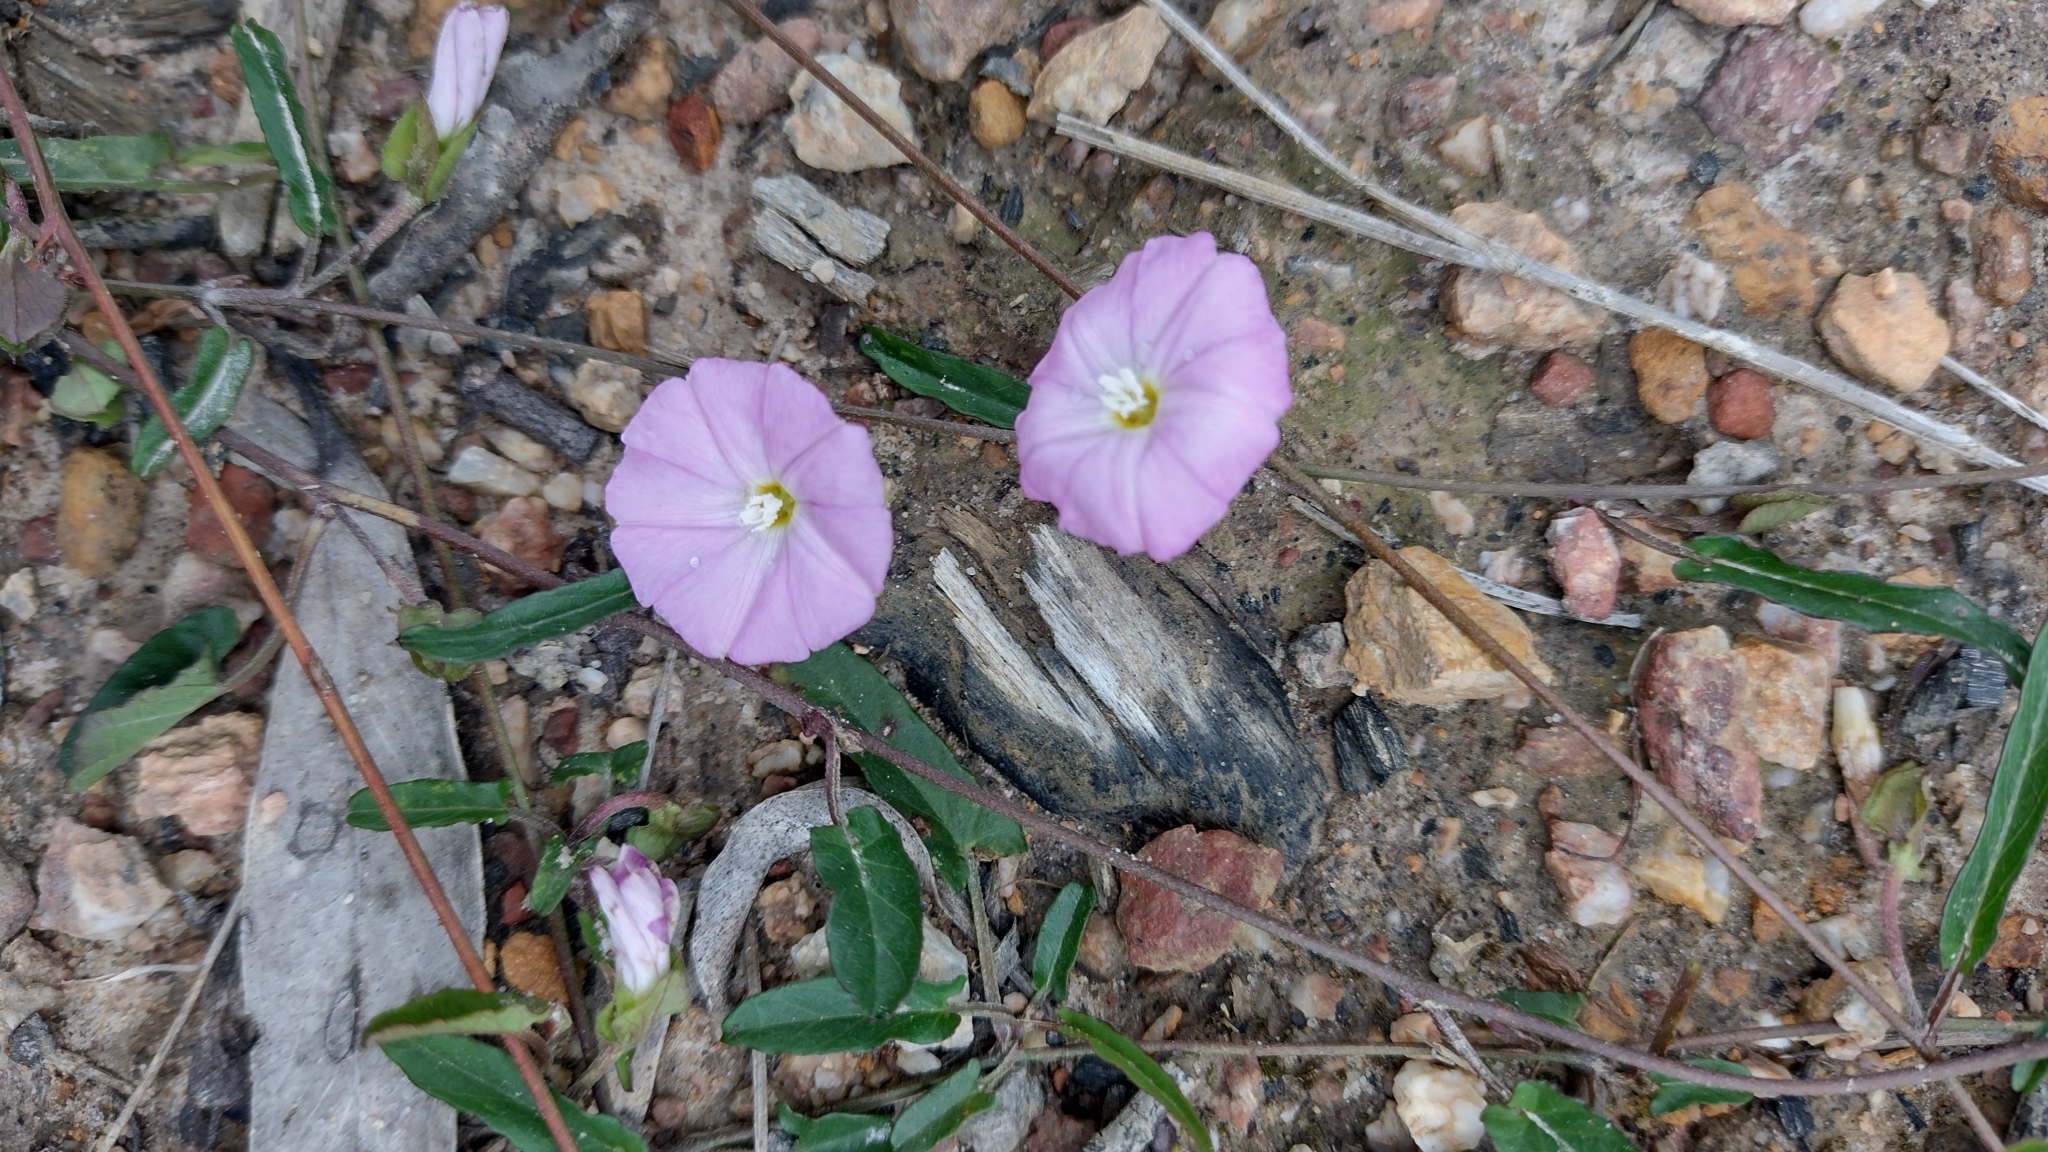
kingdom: Plantae
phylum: Tracheophyta
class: Magnoliopsida
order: Solanales
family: Convolvulaceae
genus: Polymeria
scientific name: Polymeria calycina
